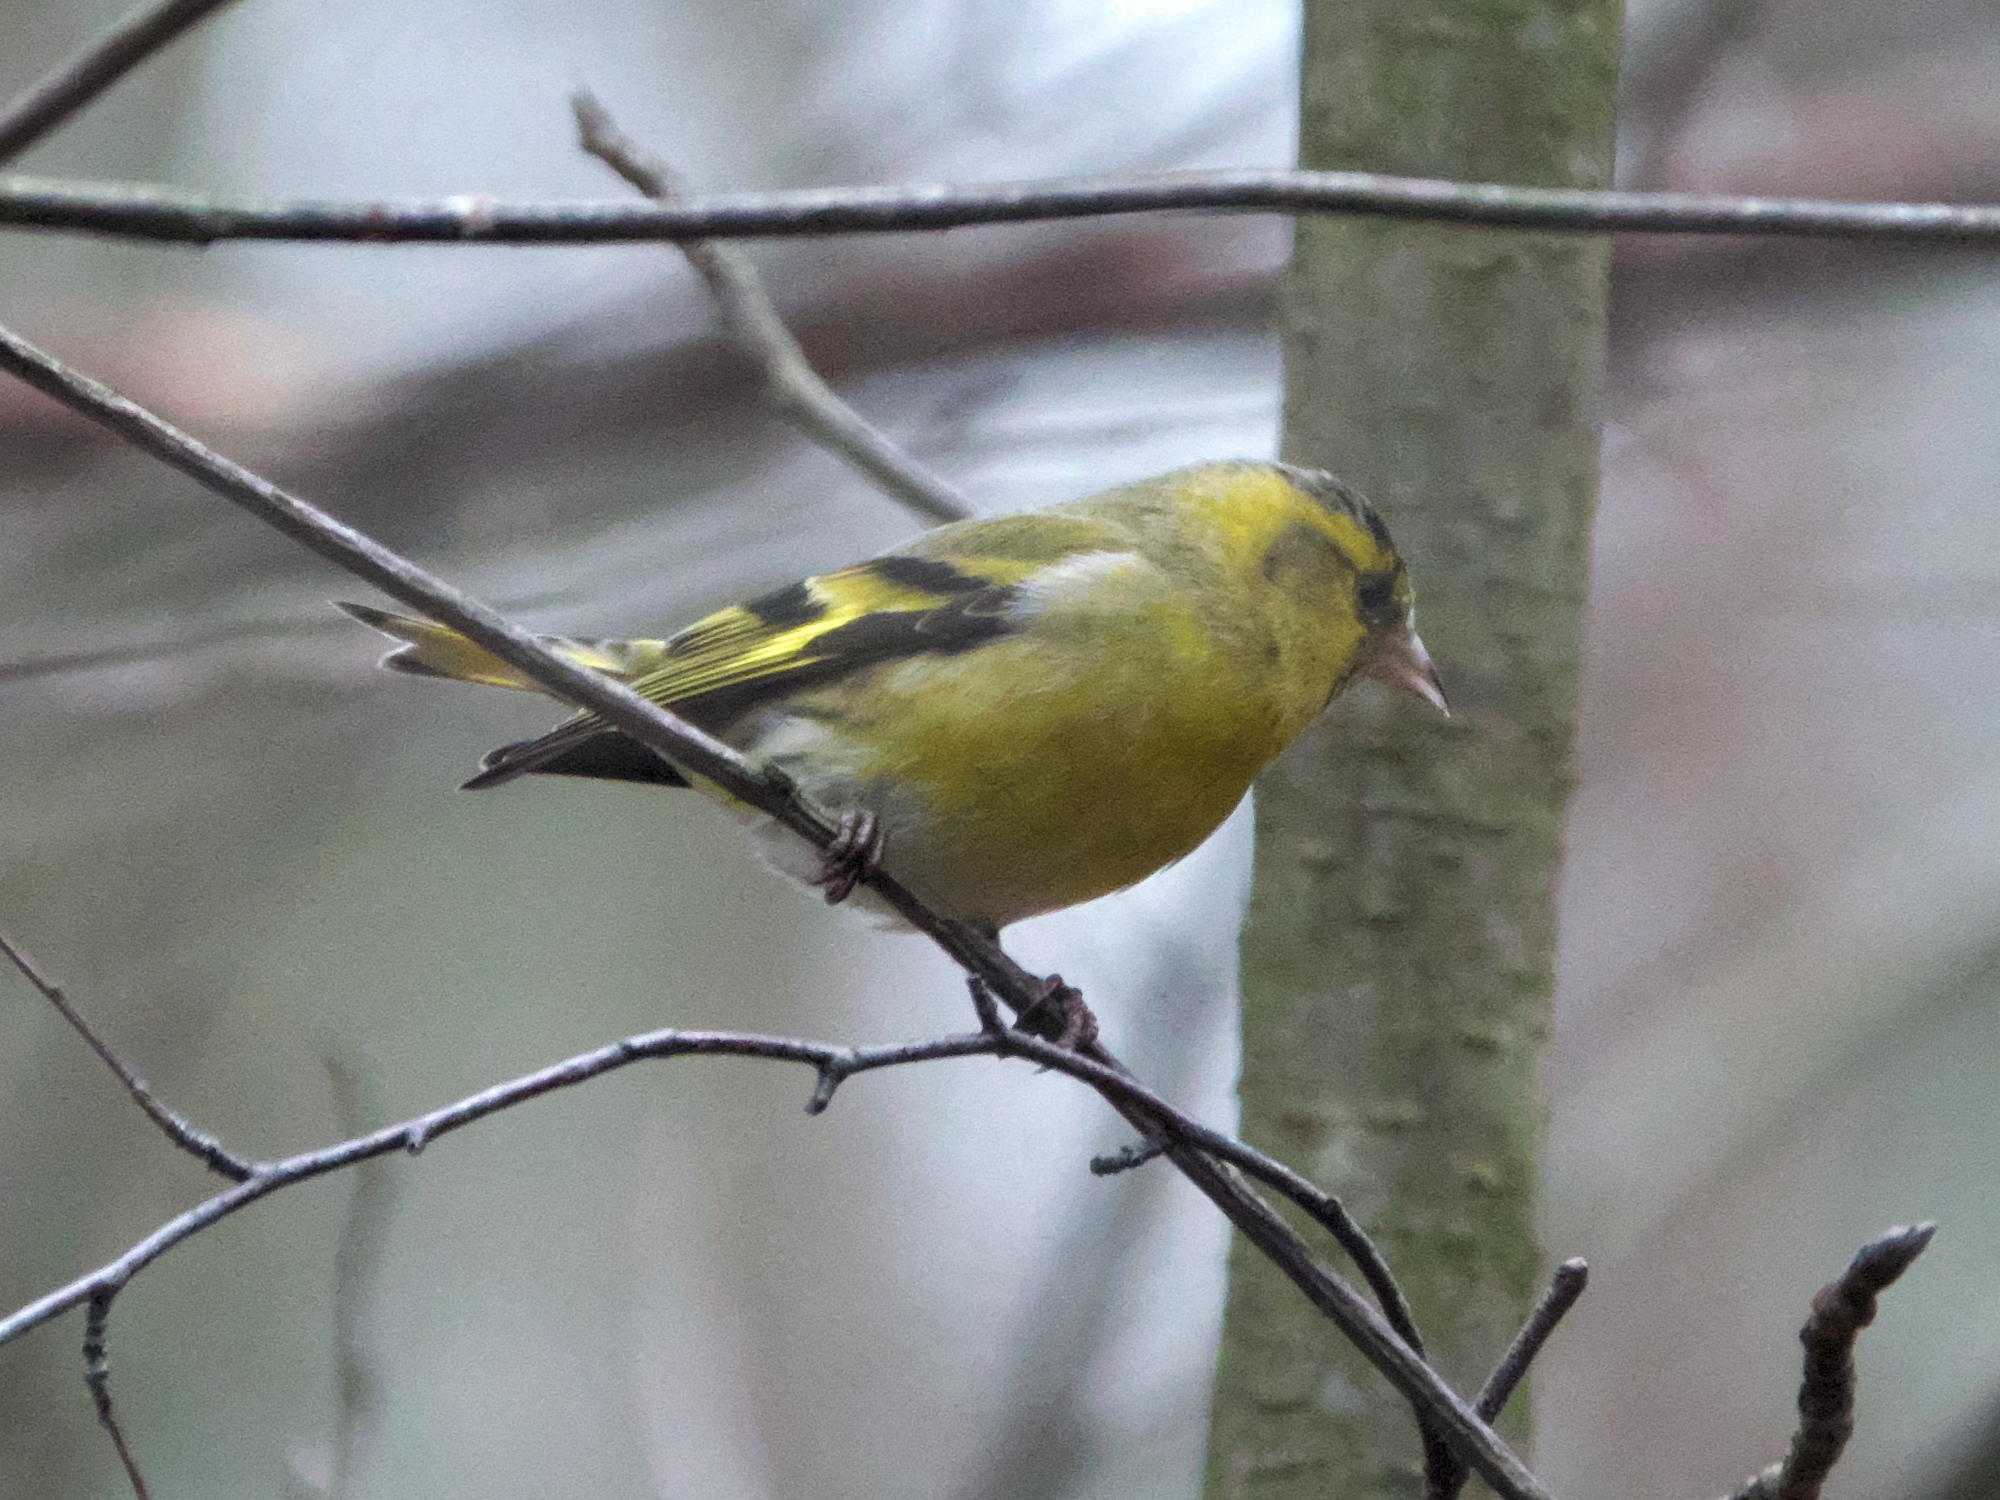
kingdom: Animalia
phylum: Chordata
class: Aves
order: Passeriformes
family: Fringillidae
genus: Spinus
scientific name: Spinus spinus
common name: Eurasian siskin
